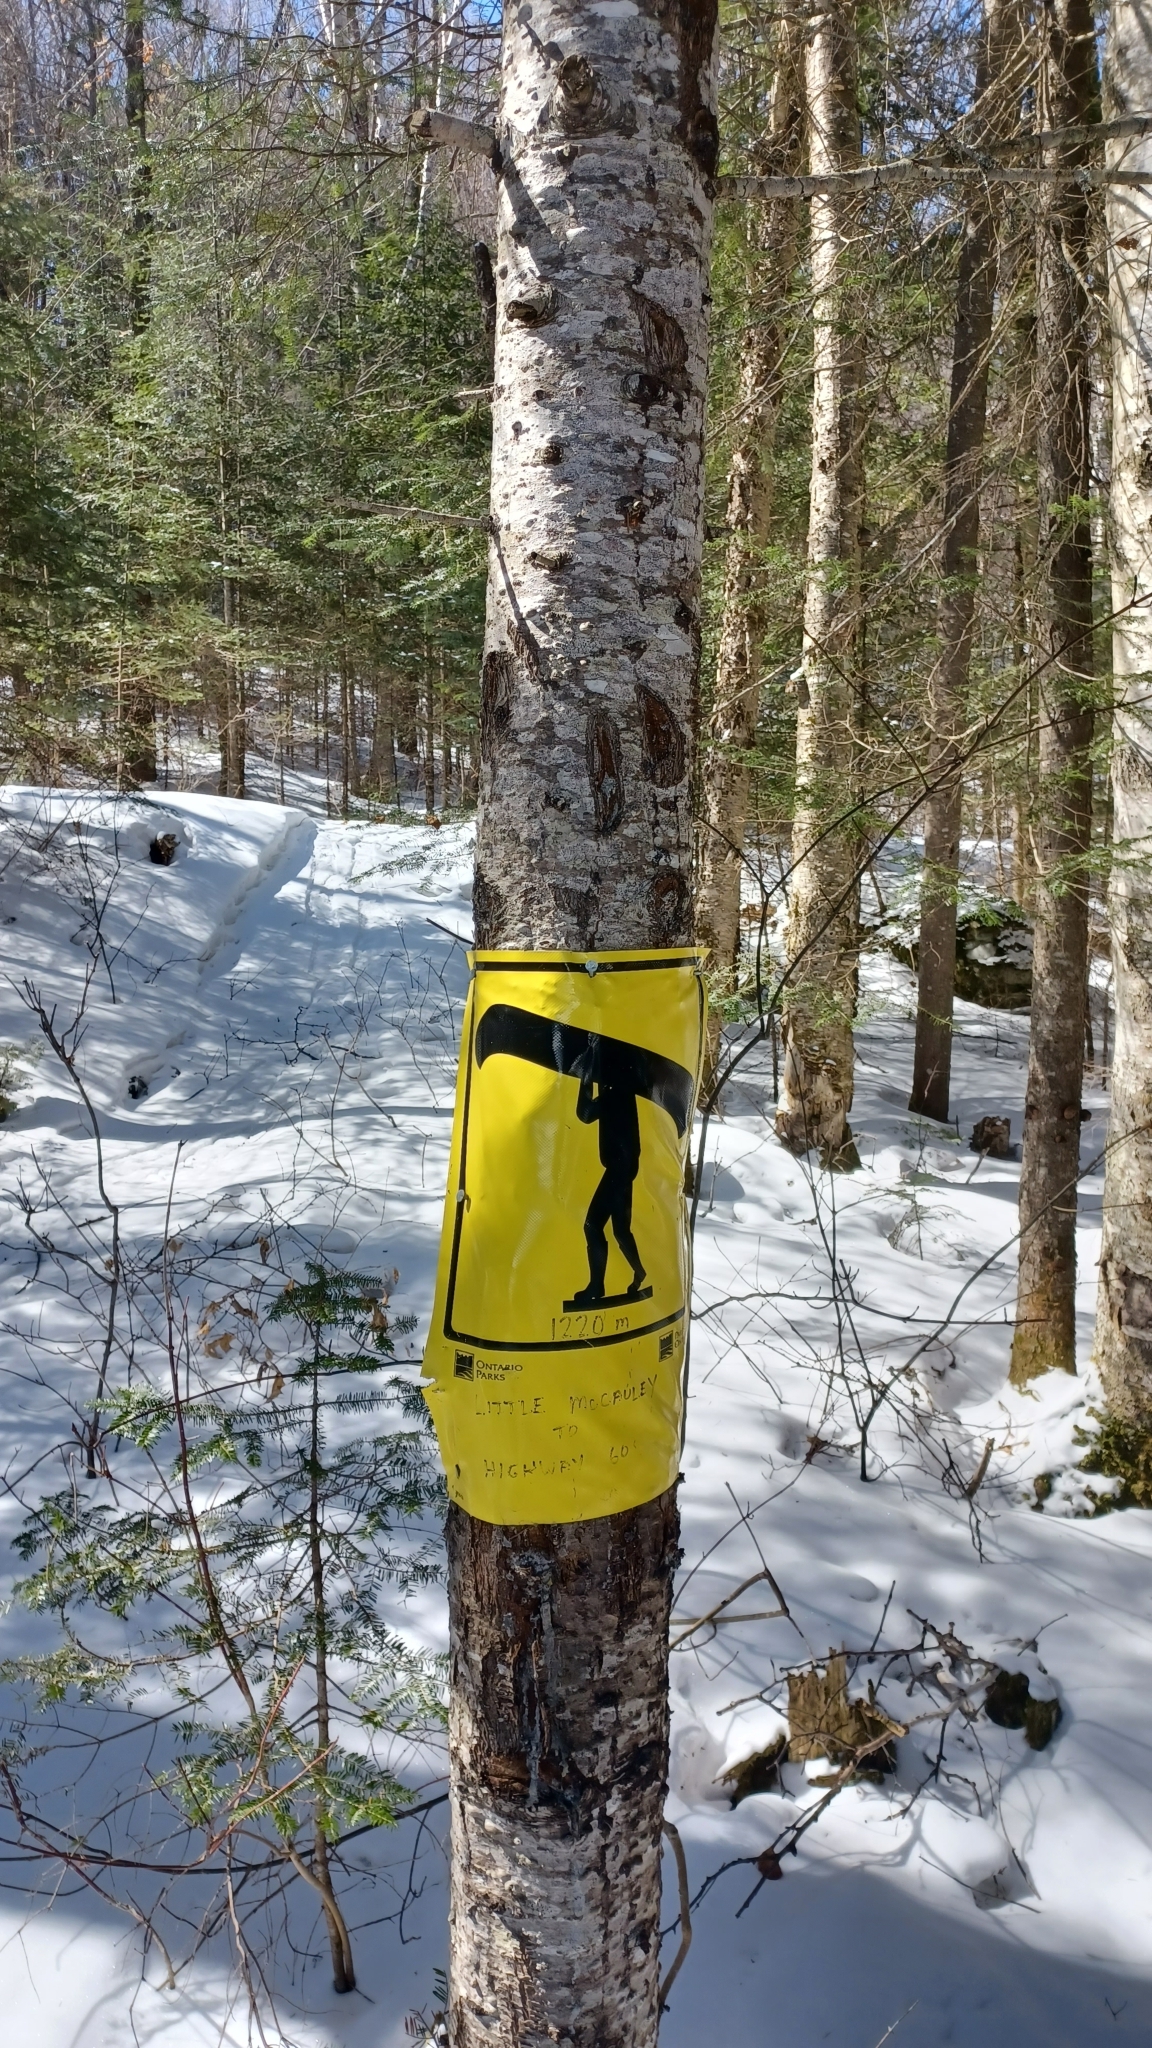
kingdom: Plantae
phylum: Tracheophyta
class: Pinopsida
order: Pinales
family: Pinaceae
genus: Abies
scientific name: Abies balsamea
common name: Balsam fir
